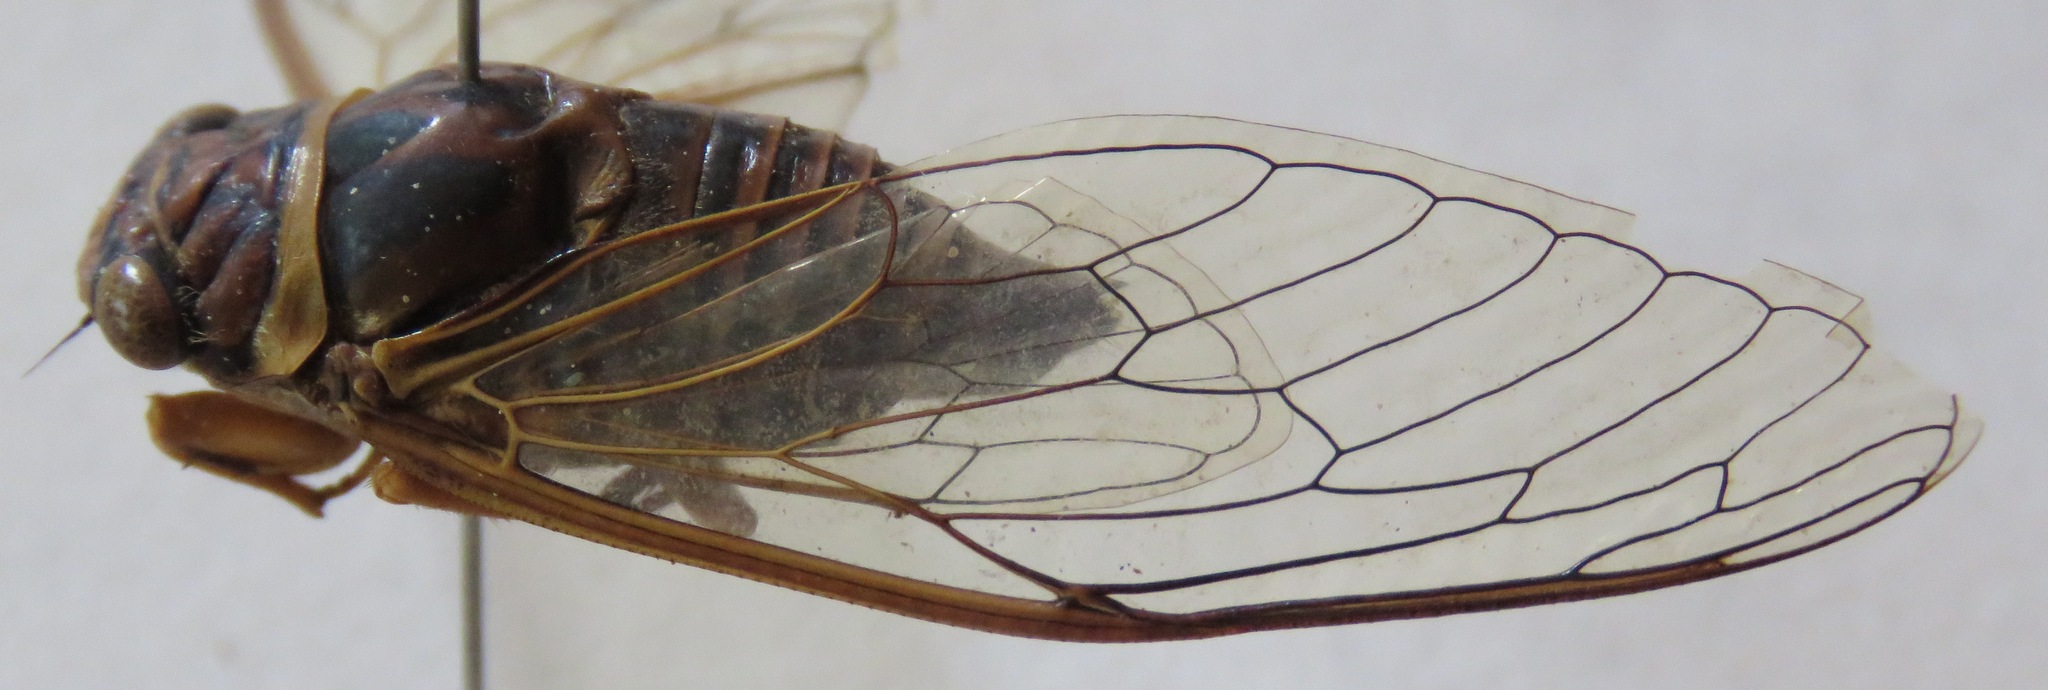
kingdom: Animalia
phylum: Arthropoda
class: Insecta
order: Hemiptera
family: Cicadidae
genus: Guyalna
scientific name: Guyalna woldai
